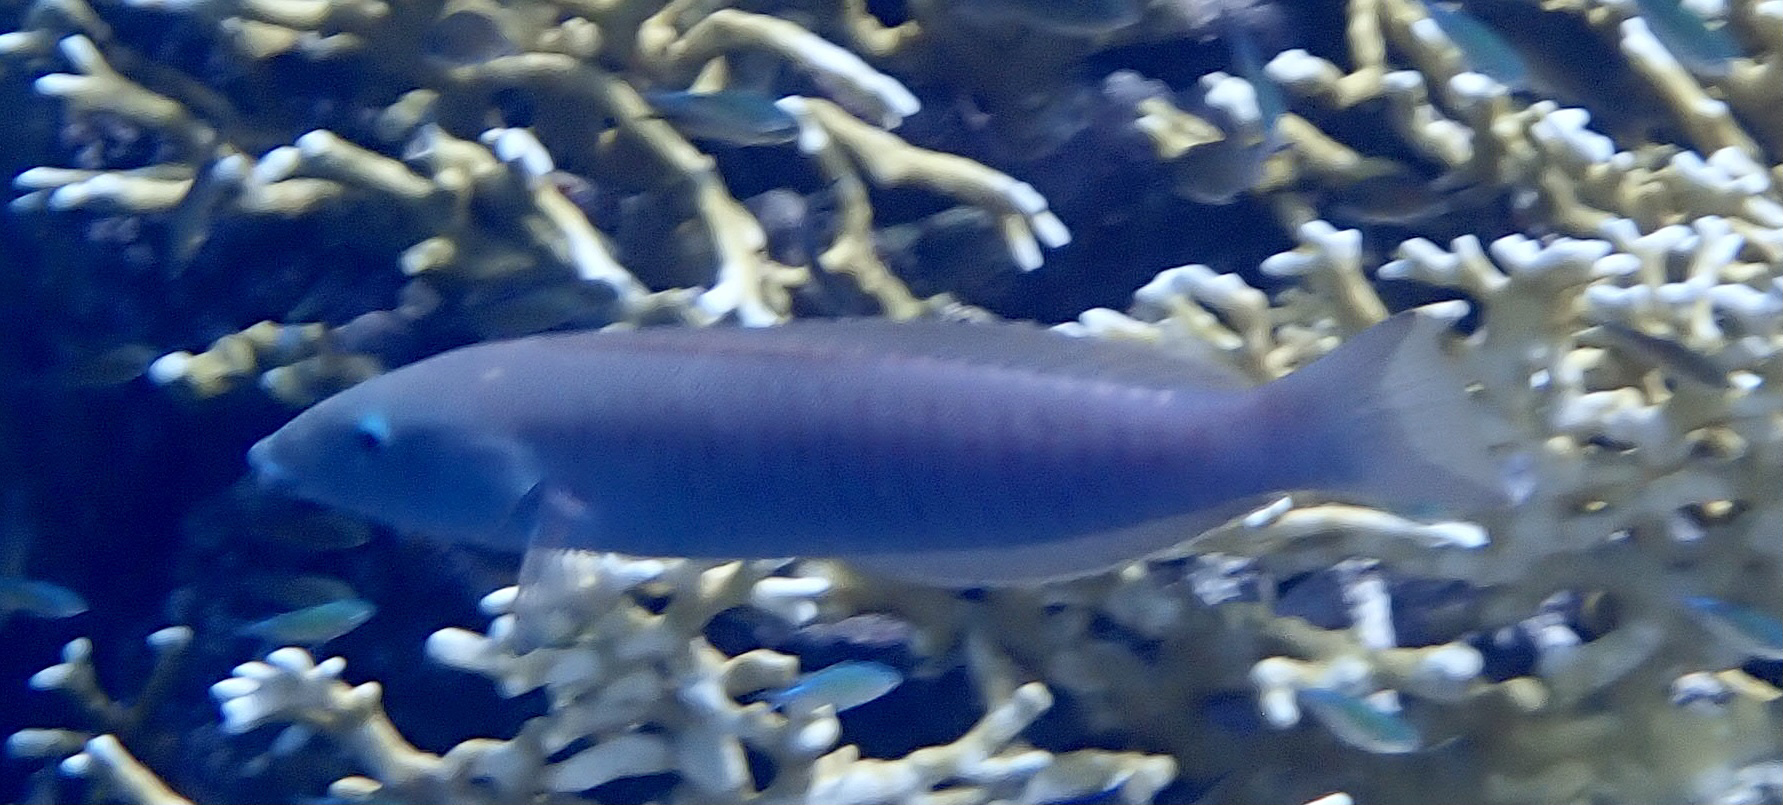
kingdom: Animalia
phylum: Chordata
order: Perciformes
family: Labridae
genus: Hologymnosus
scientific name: Hologymnosus annulatus
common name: Ring wrasse
